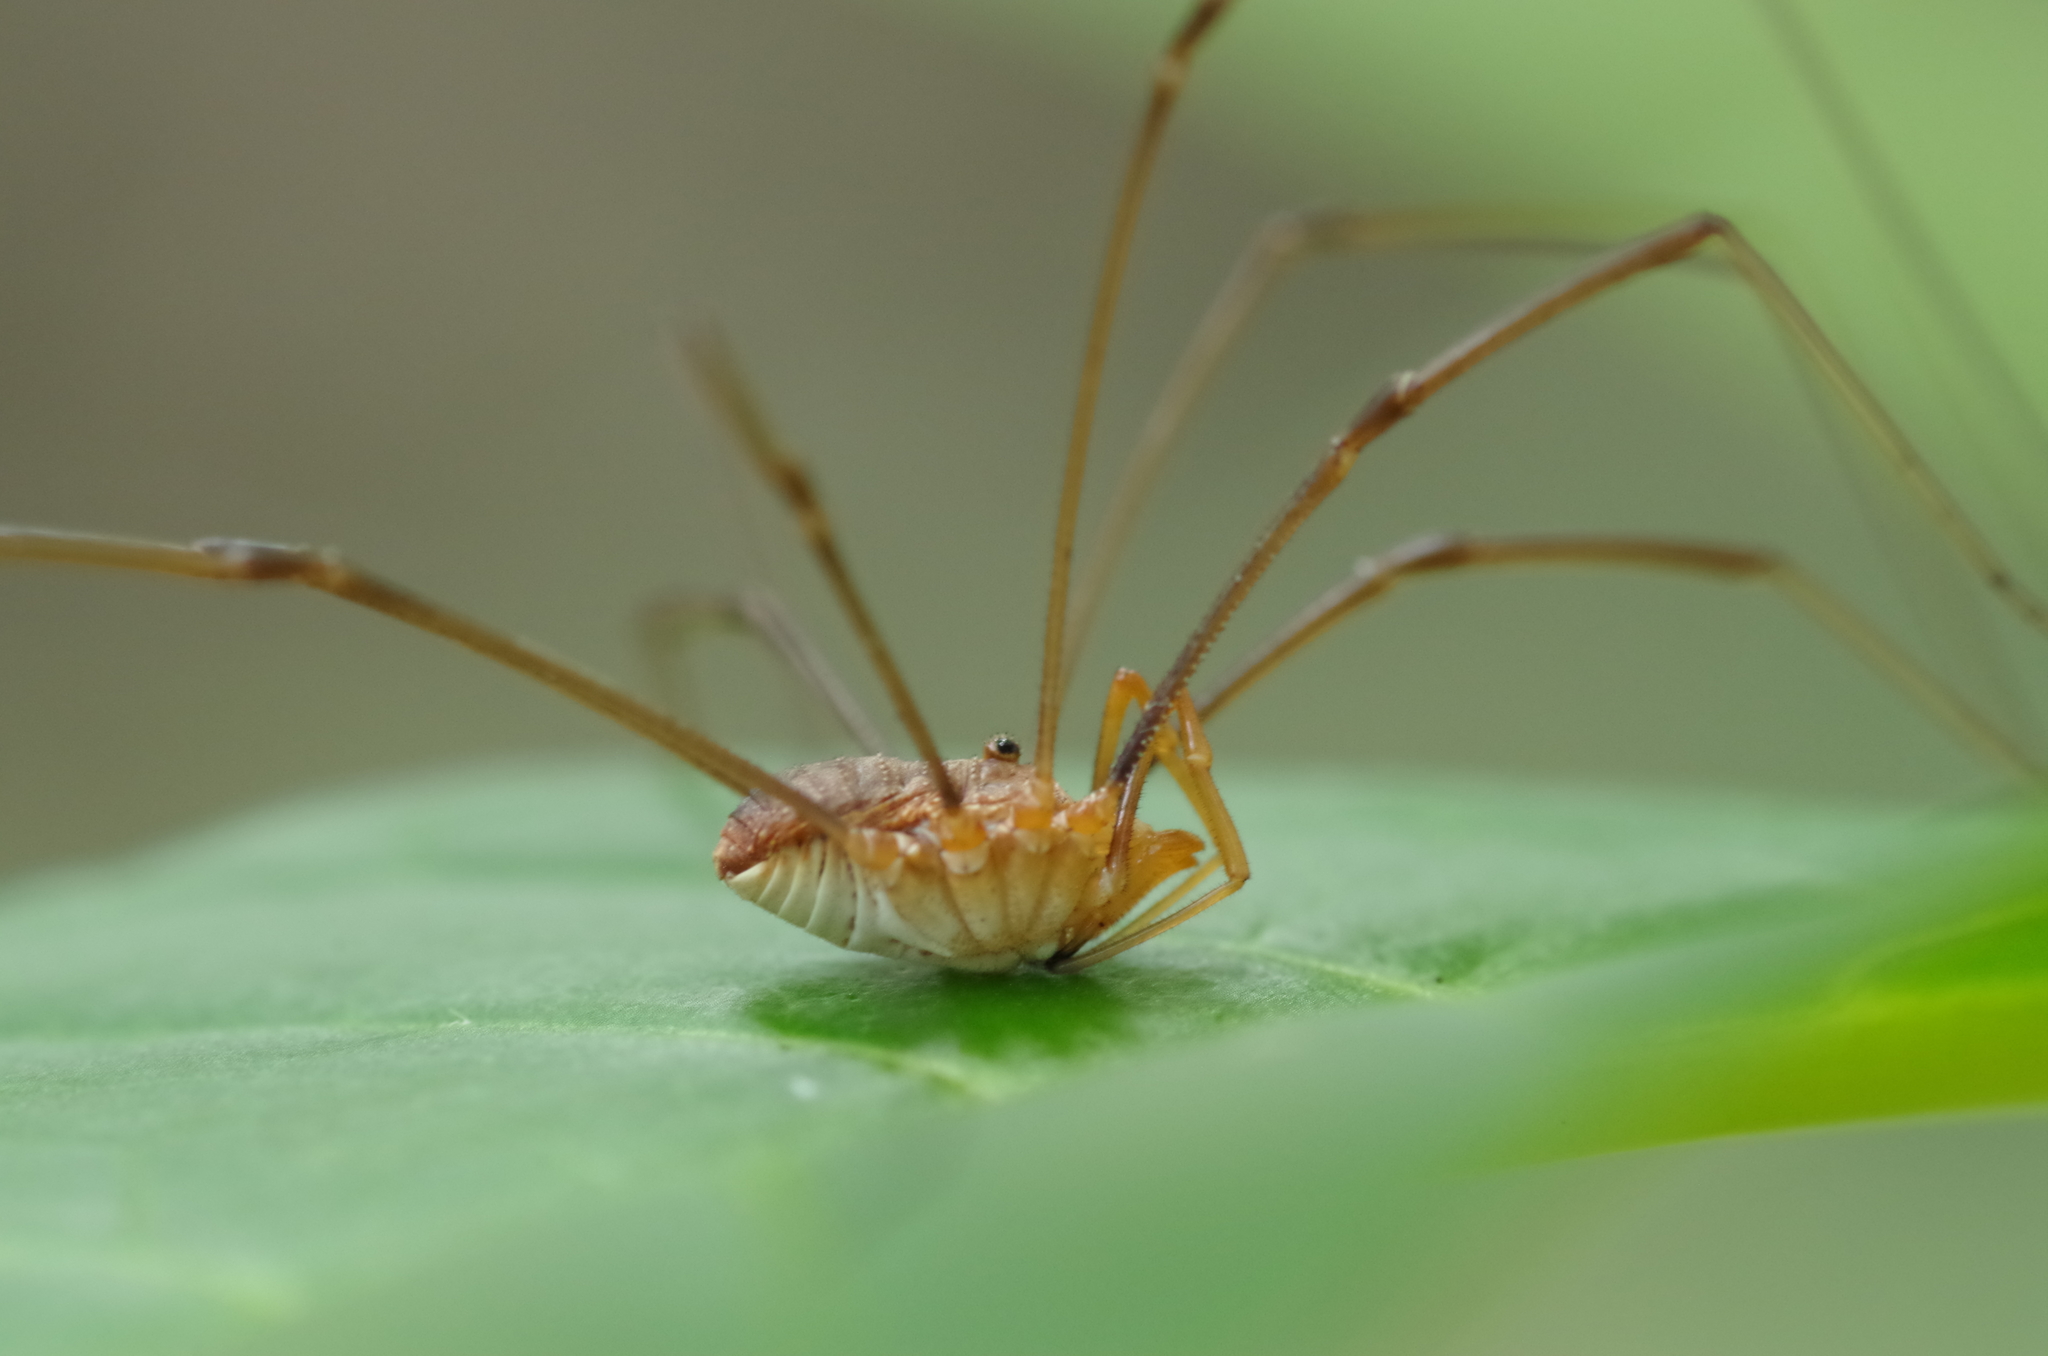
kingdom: Animalia
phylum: Arthropoda
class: Arachnida
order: Opiliones
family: Phalangiidae
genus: Phalangium
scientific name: Phalangium opilio
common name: Daddy longleg
